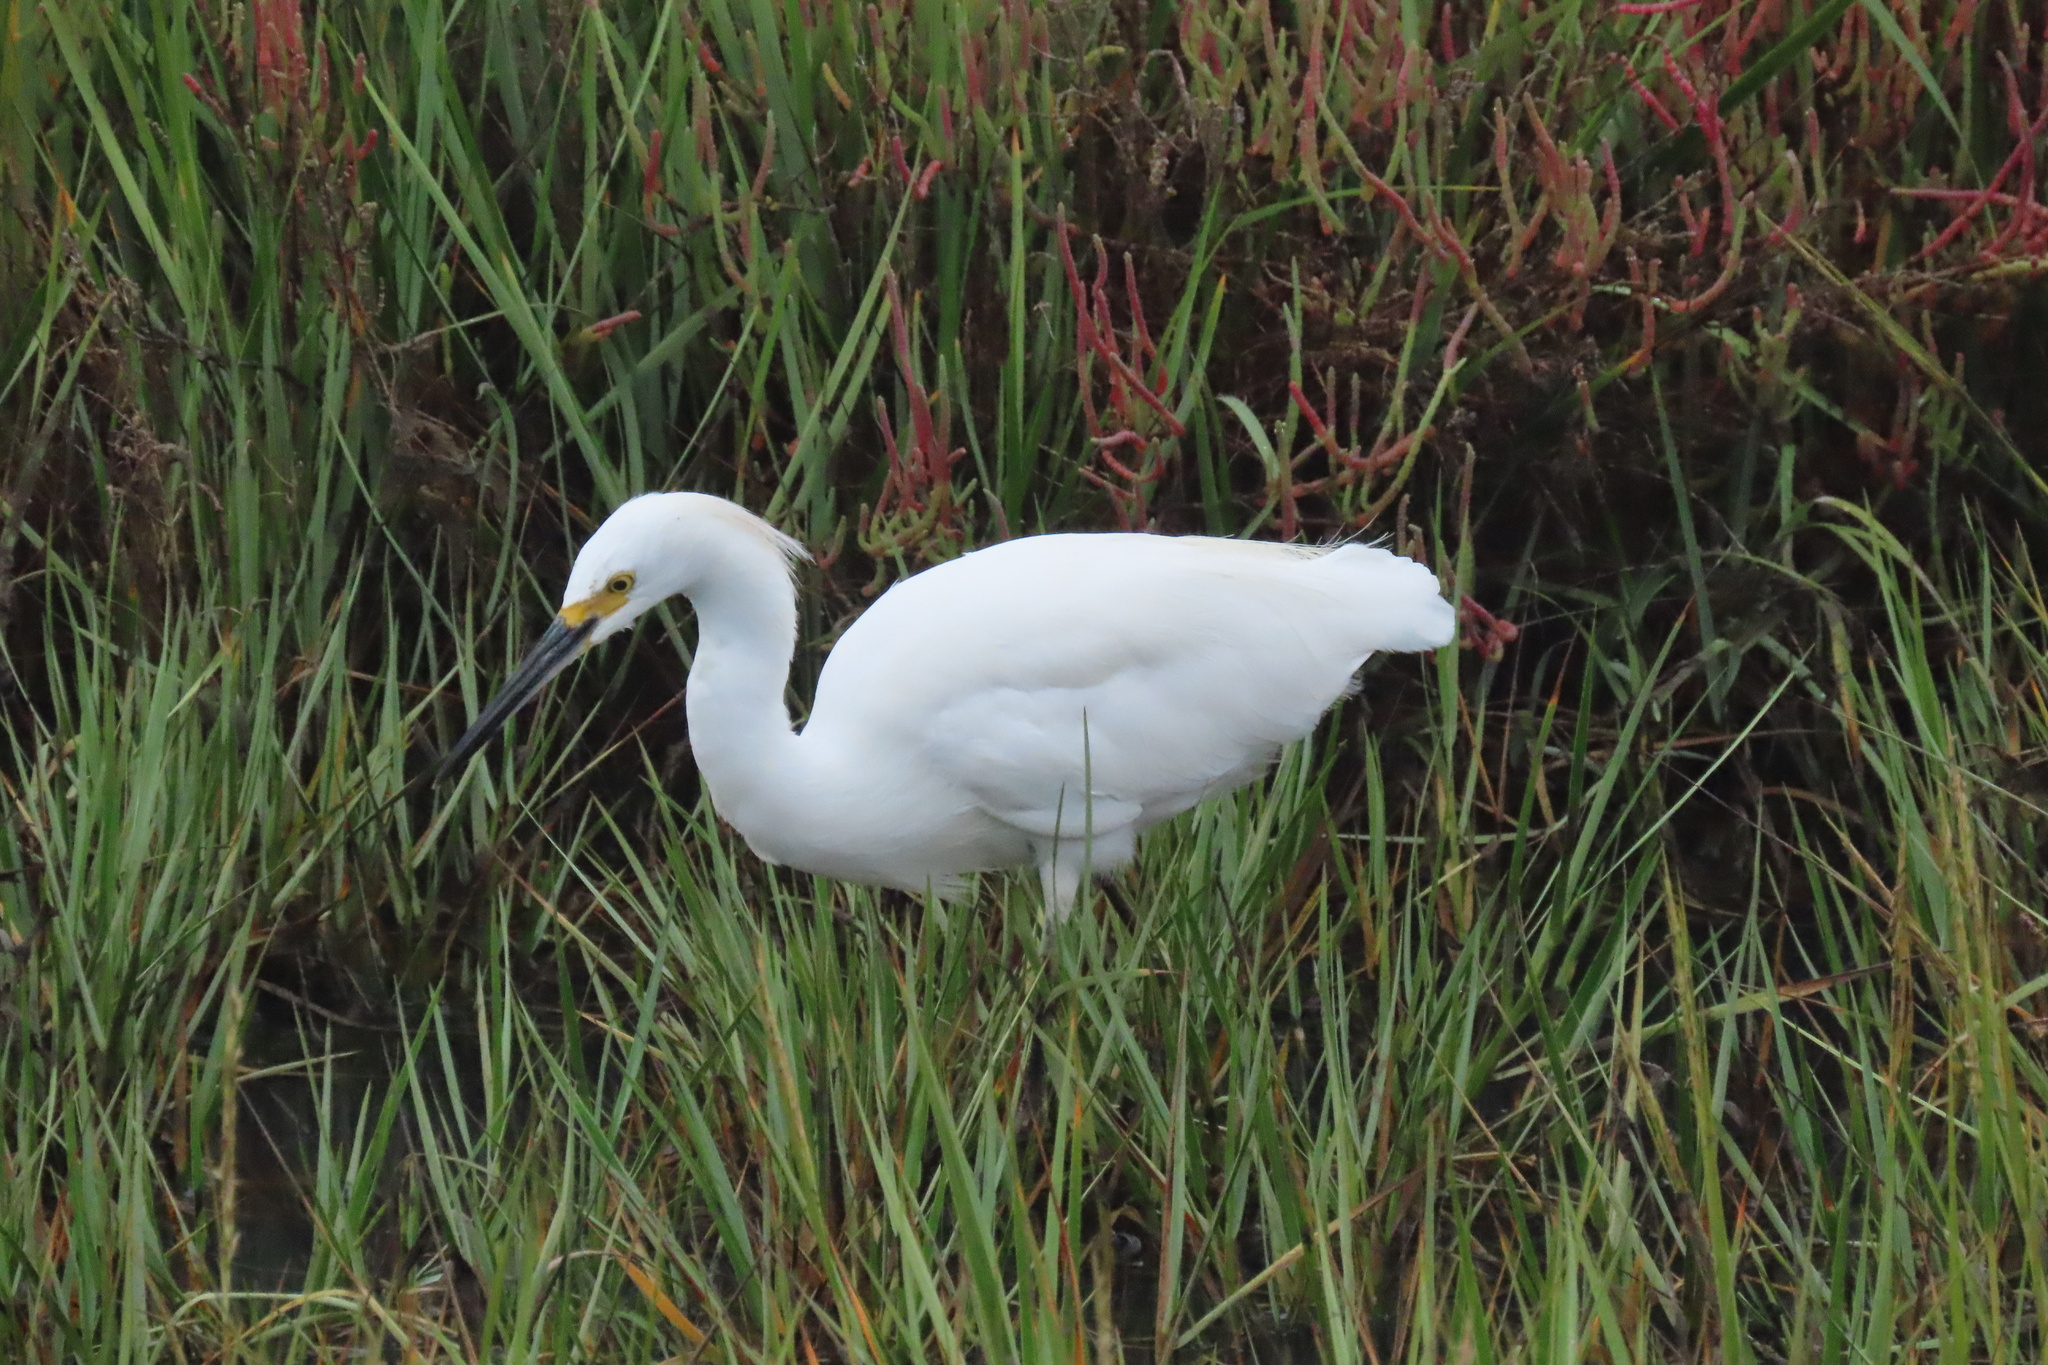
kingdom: Animalia
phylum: Chordata
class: Aves
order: Pelecaniformes
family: Ardeidae
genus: Egretta
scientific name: Egretta thula
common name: Snowy egret
